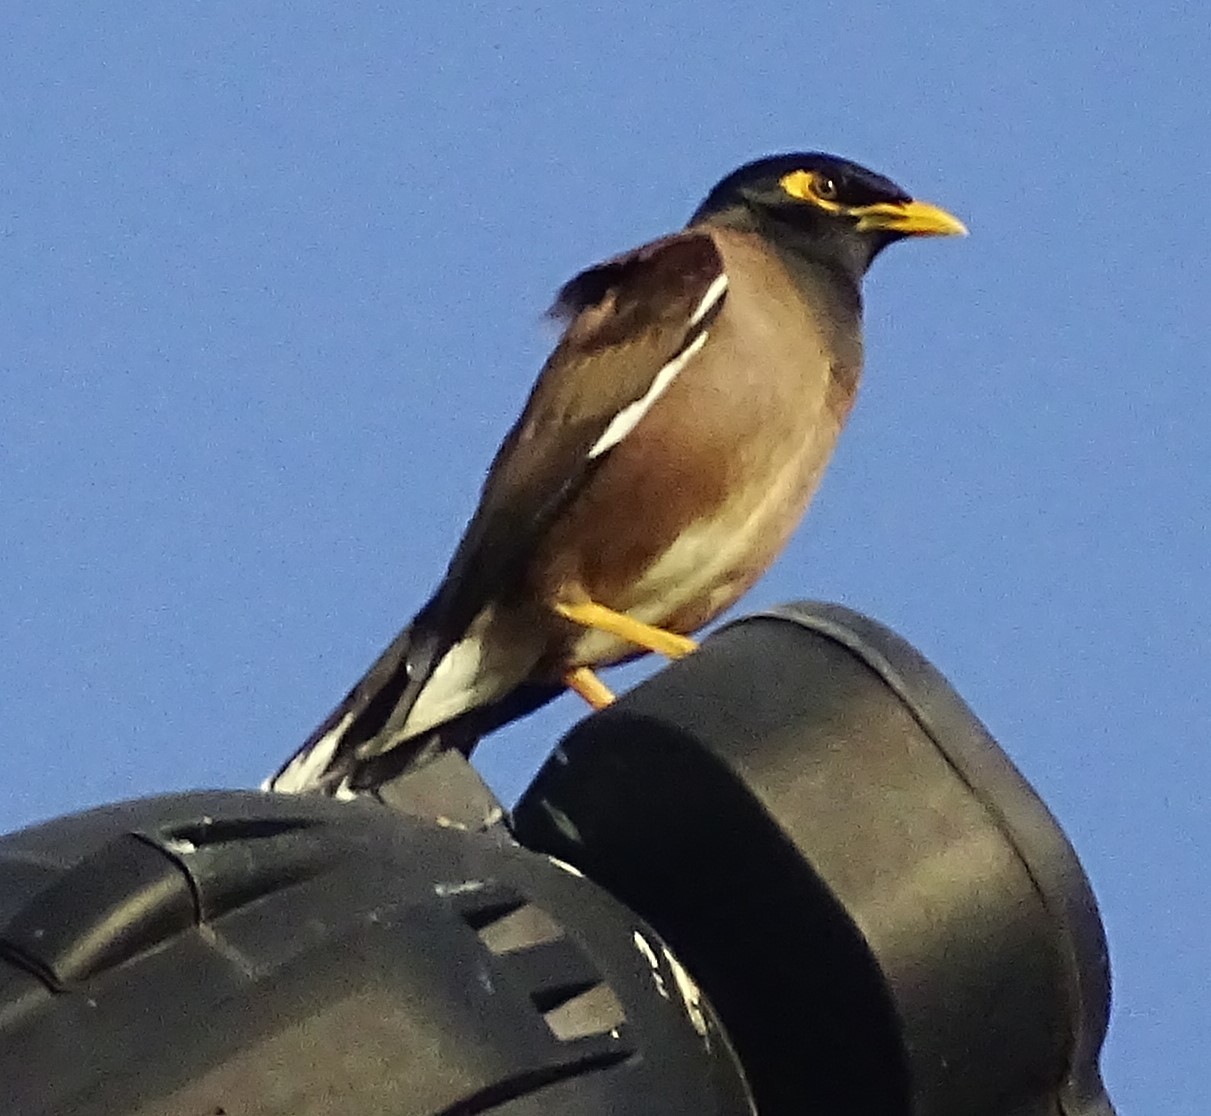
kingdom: Animalia
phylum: Chordata
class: Aves
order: Passeriformes
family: Sturnidae
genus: Acridotheres
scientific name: Acridotheres tristis
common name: Common myna
